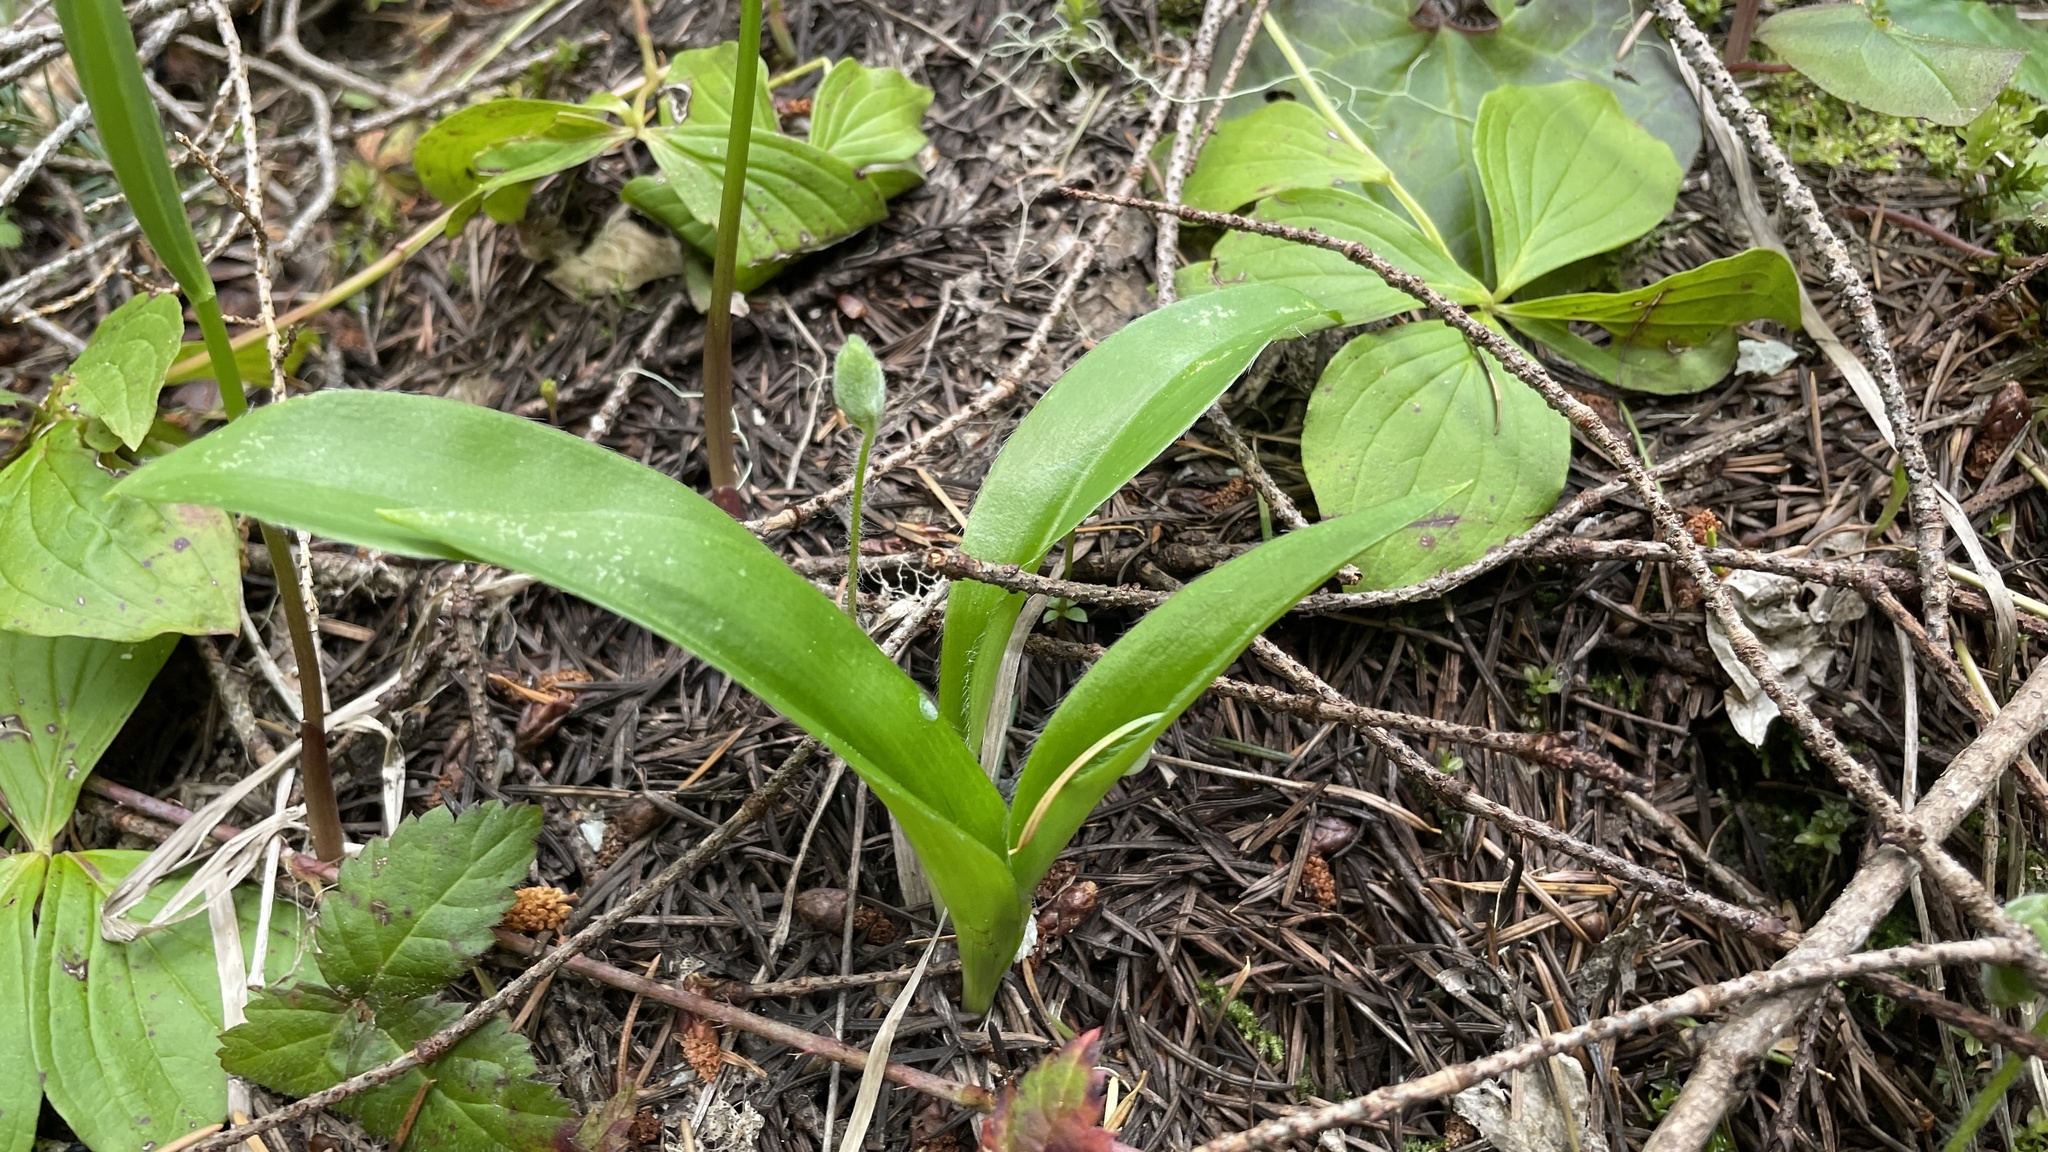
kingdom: Plantae
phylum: Tracheophyta
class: Liliopsida
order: Liliales
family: Liliaceae
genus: Clintonia
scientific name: Clintonia uniflora
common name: Queen's cup
